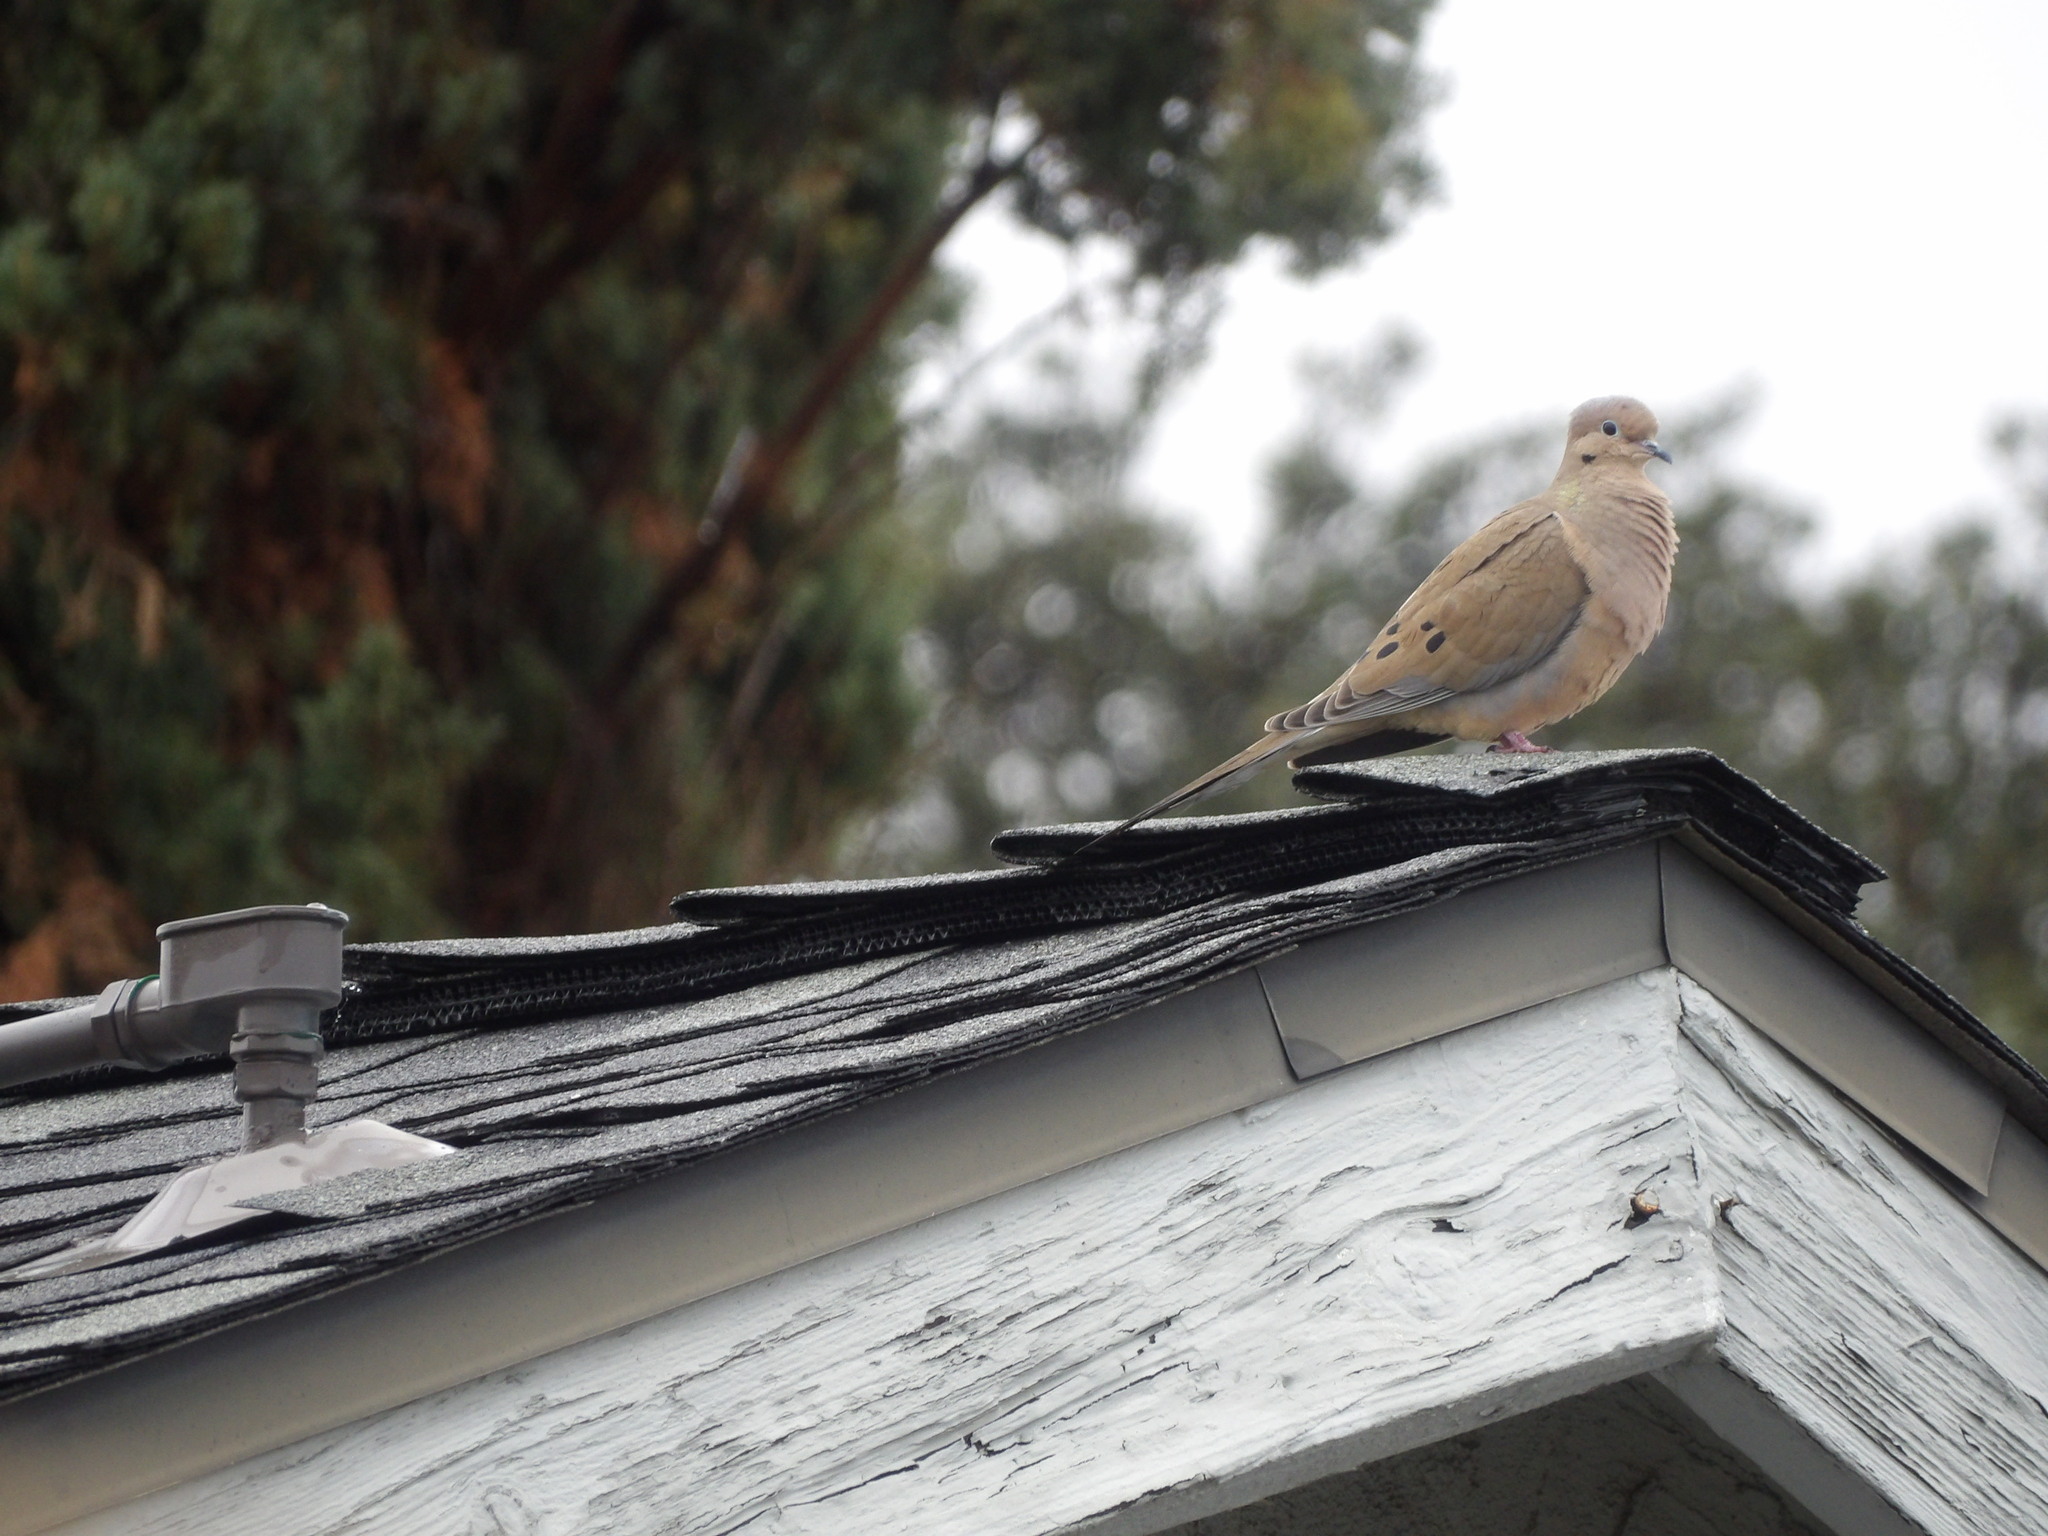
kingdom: Animalia
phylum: Chordata
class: Aves
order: Columbiformes
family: Columbidae
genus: Zenaida
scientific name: Zenaida macroura
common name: Mourning dove
